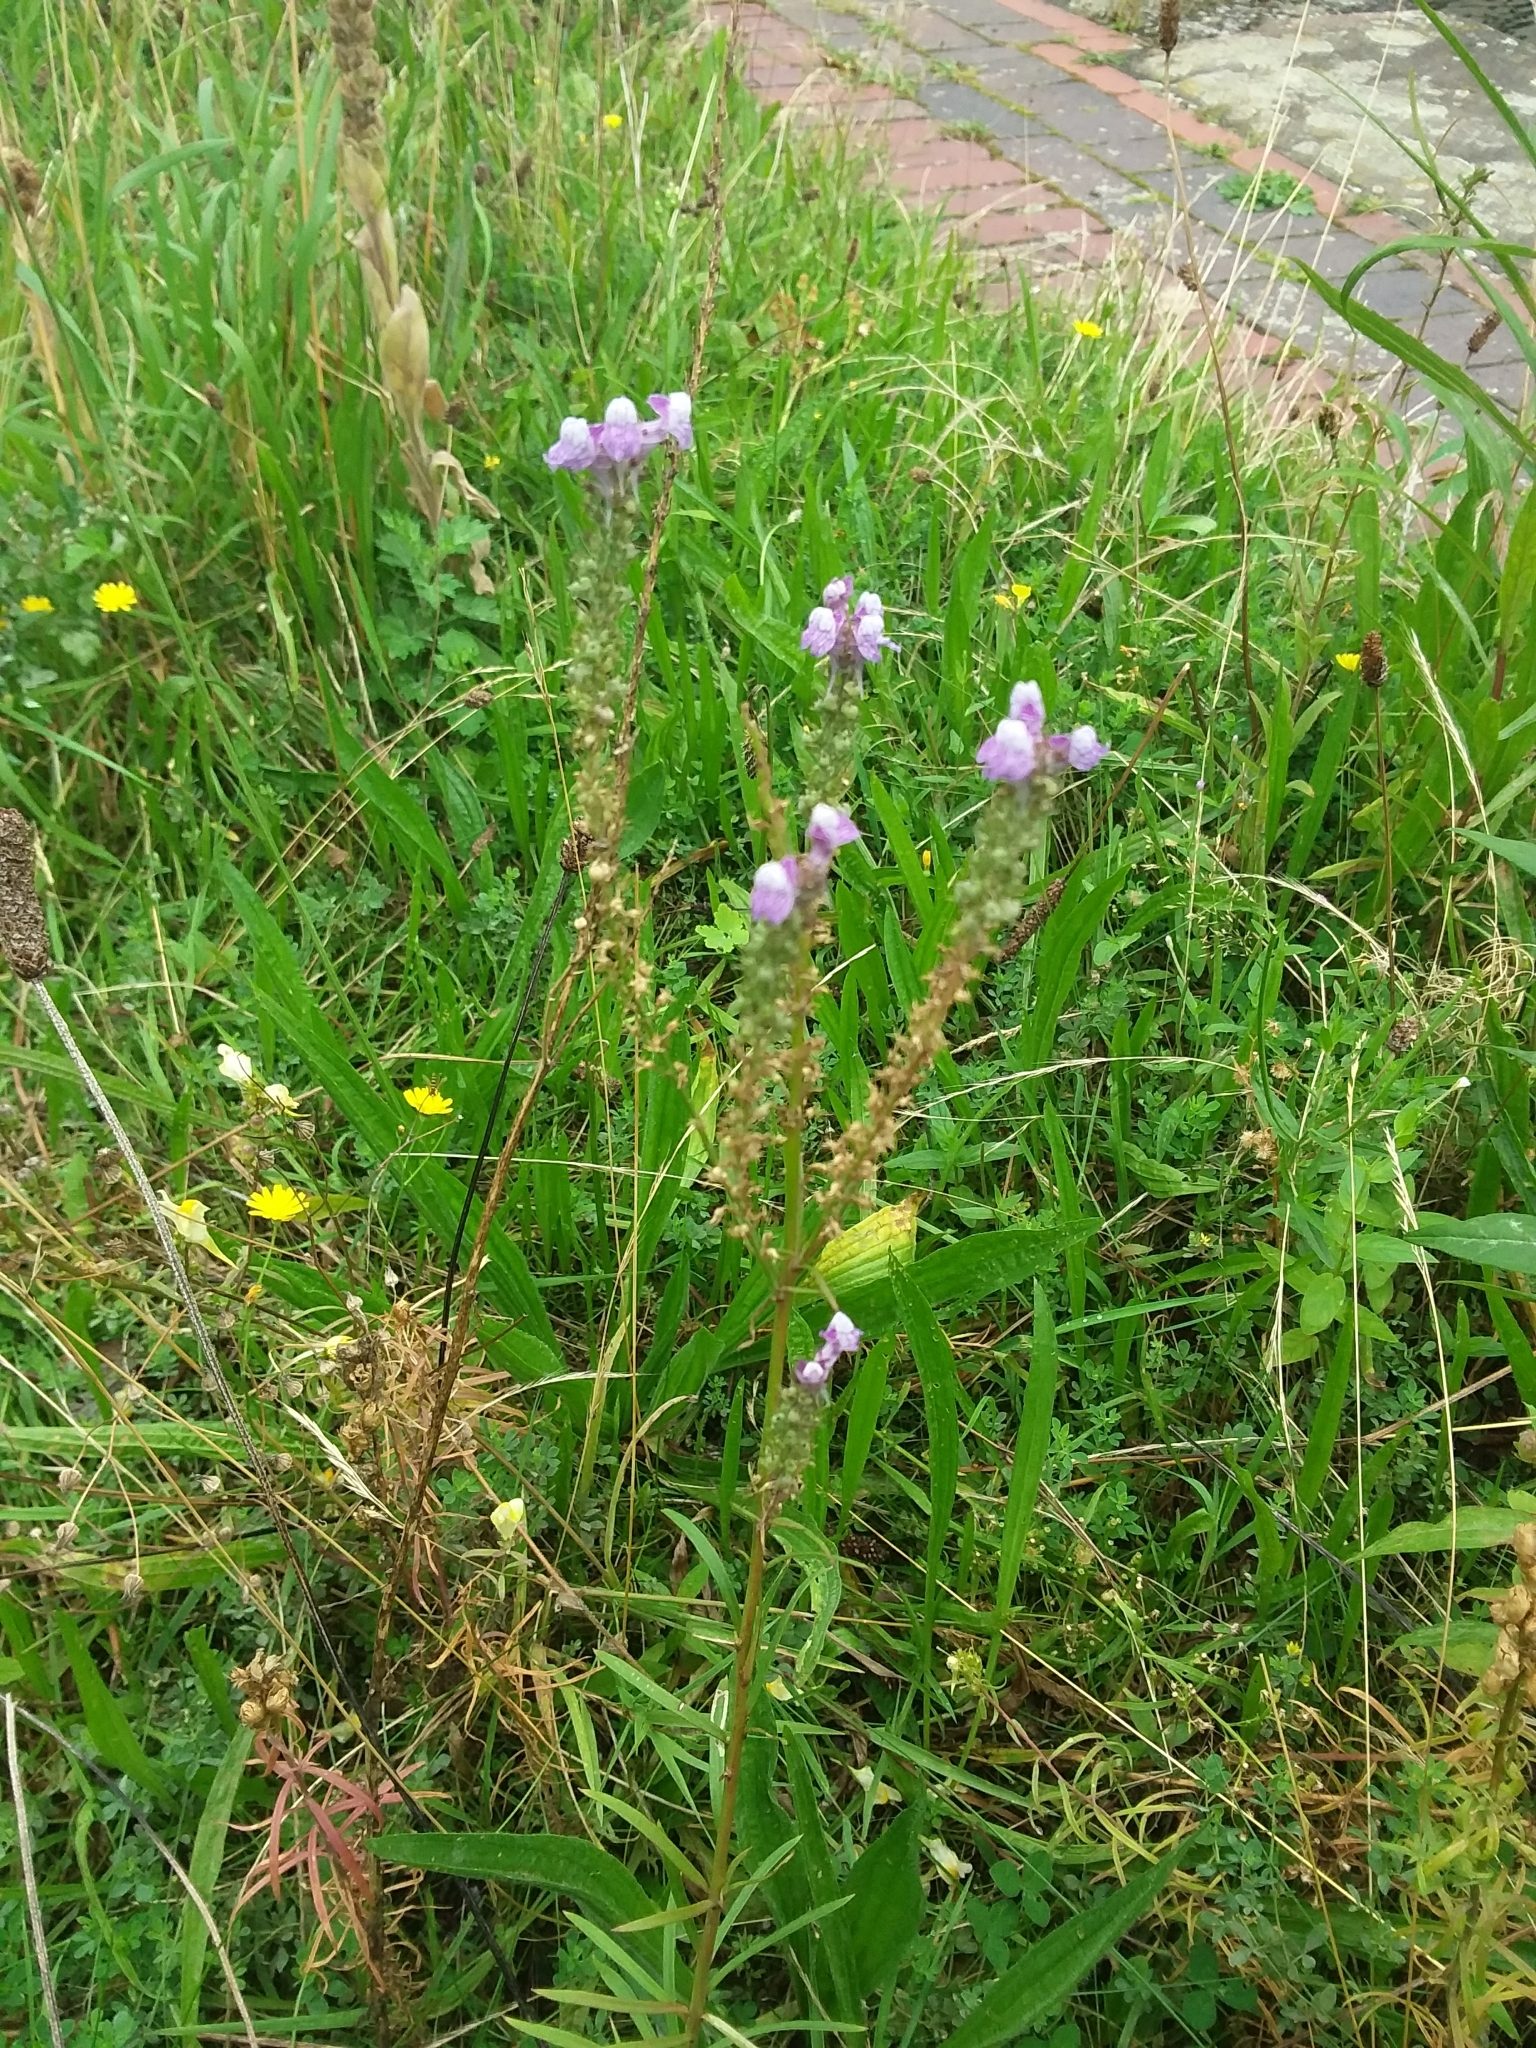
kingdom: Plantae
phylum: Tracheophyta
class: Magnoliopsida
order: Lamiales
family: Plantaginaceae
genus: Linaria
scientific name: Linaria purpurea
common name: Purple toadflax
